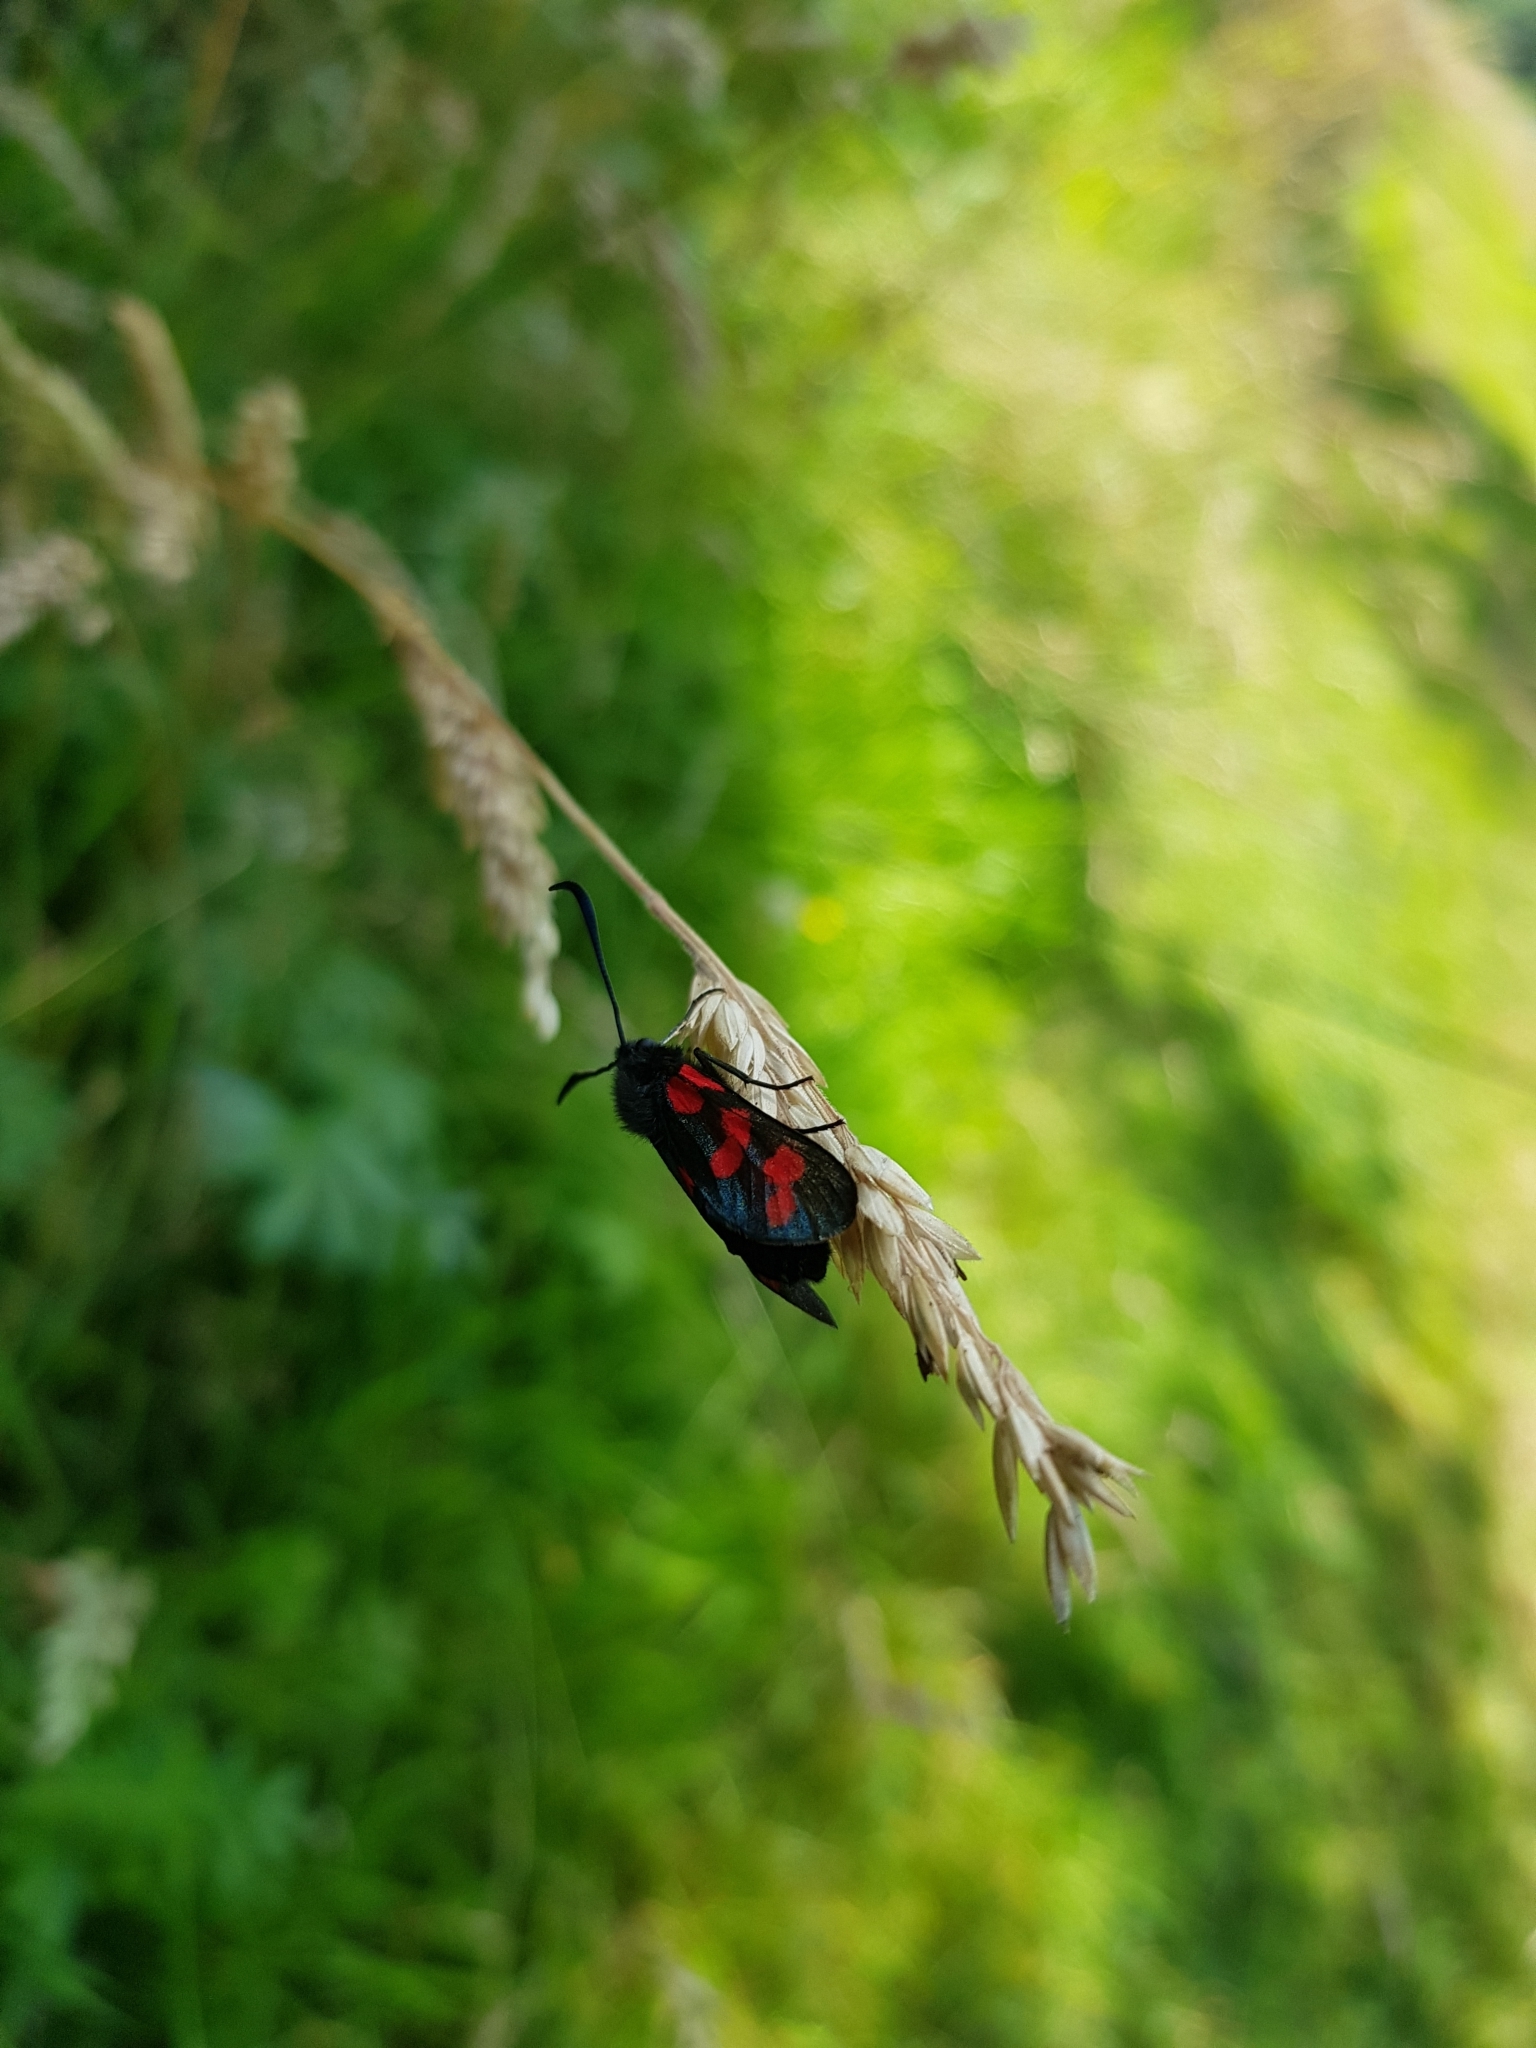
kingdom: Animalia
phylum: Arthropoda
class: Insecta
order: Lepidoptera
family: Zygaenidae
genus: Zygaena
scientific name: Zygaena filipendulae
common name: Six-spot burnet
